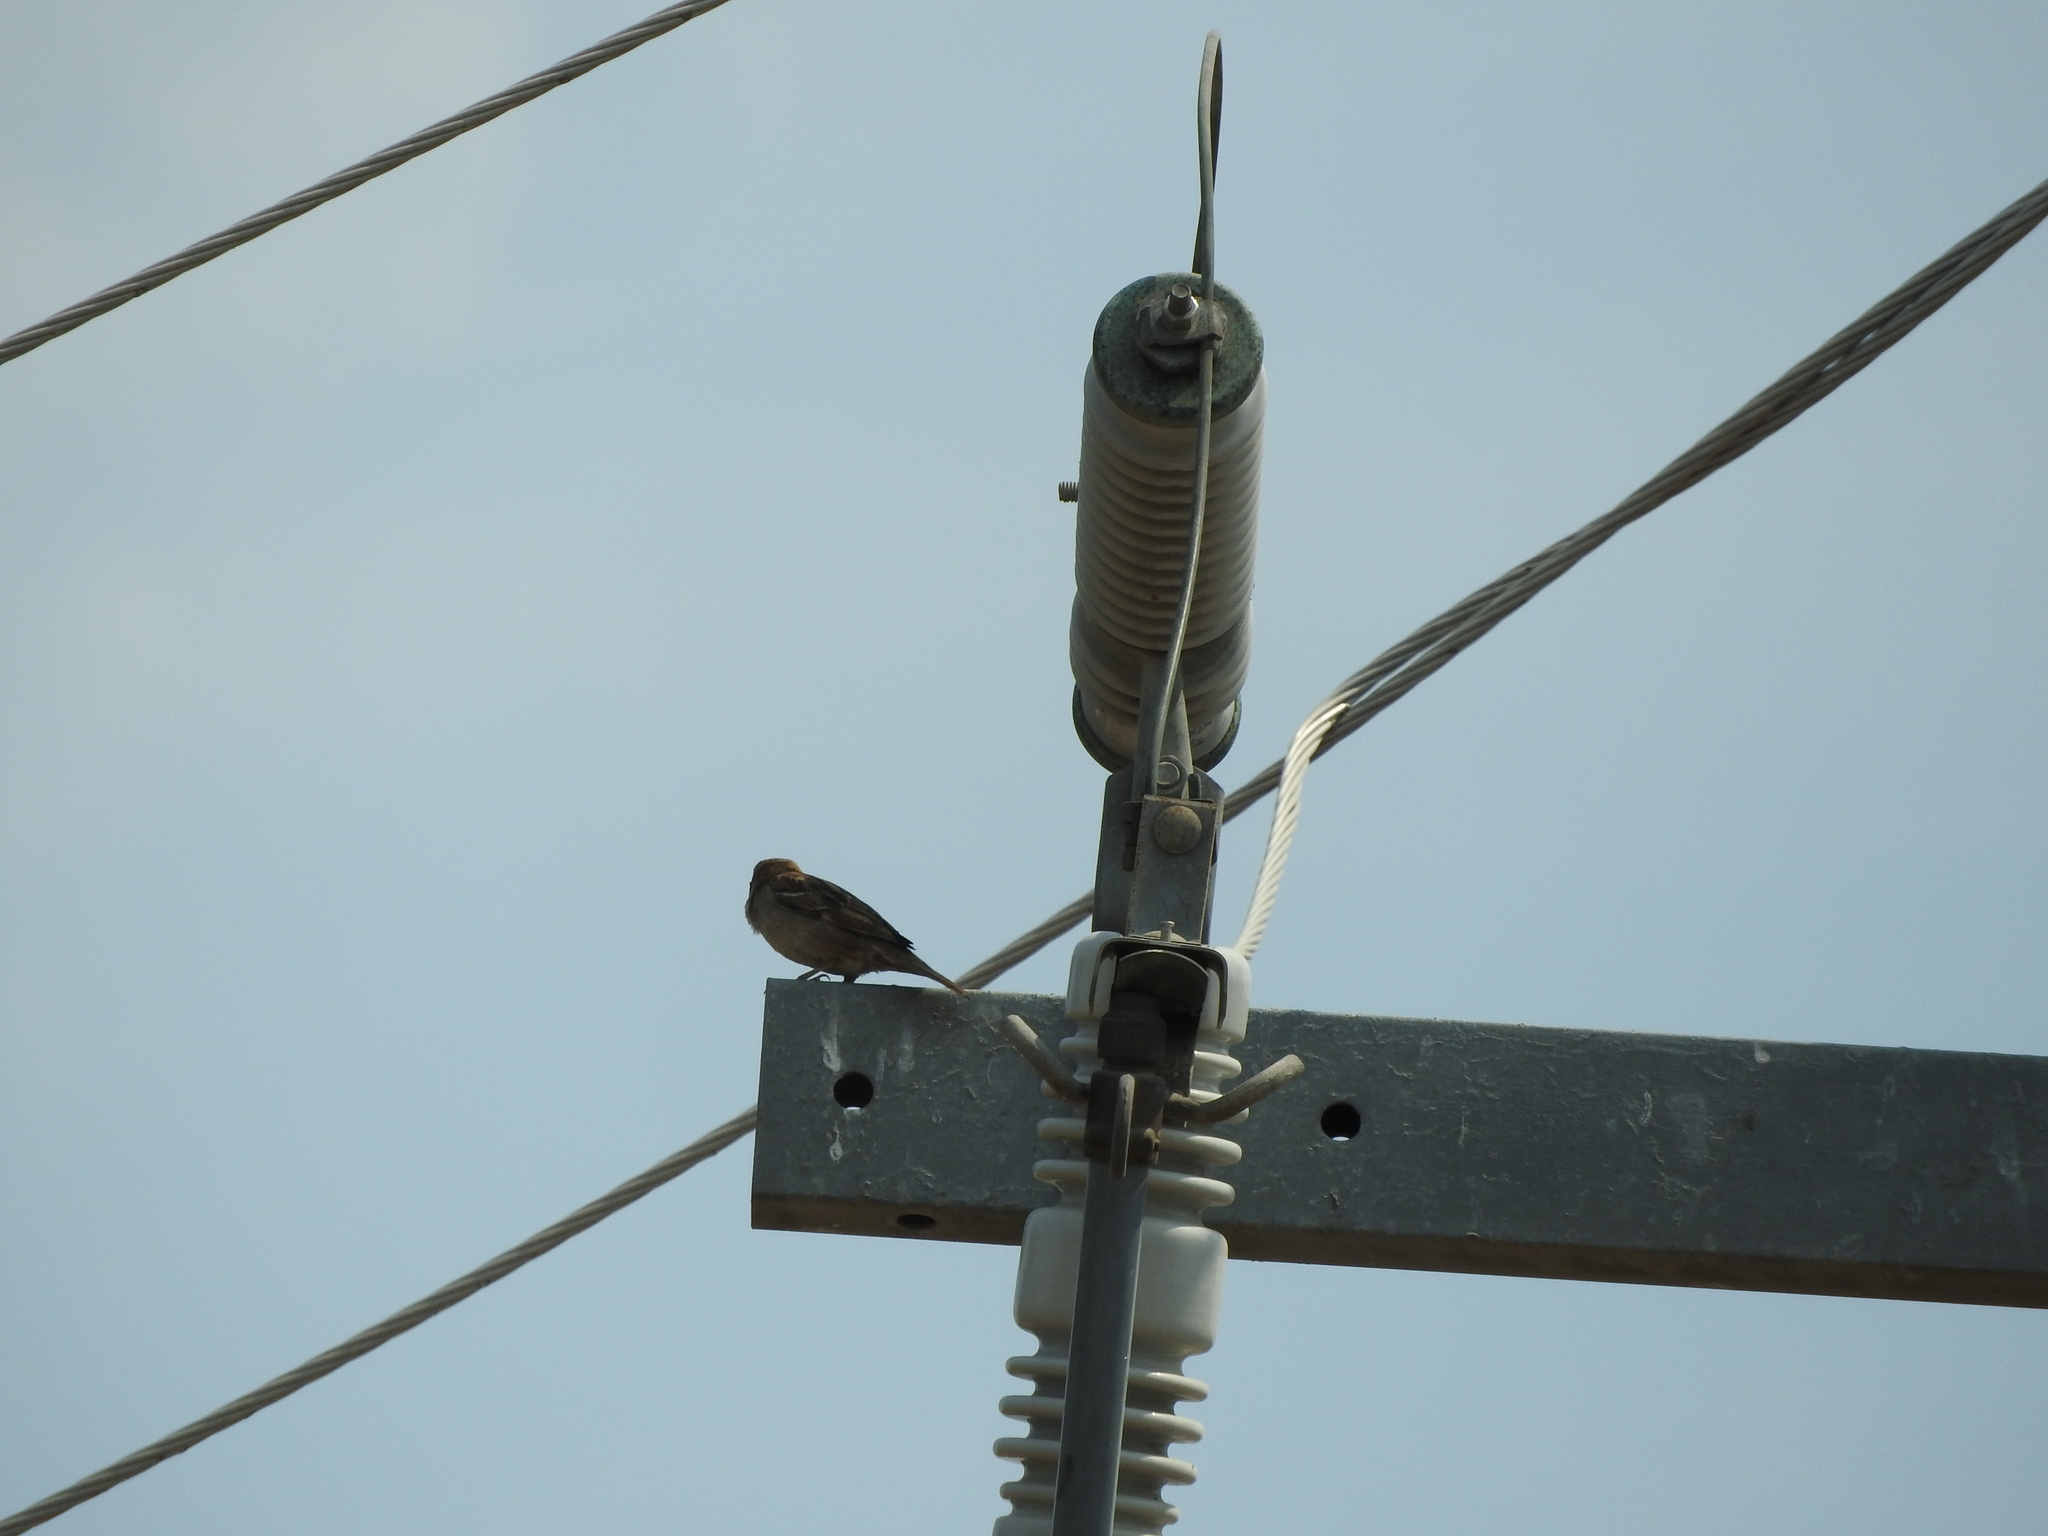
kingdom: Animalia
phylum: Chordata
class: Aves
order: Passeriformes
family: Passeridae
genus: Passer
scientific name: Passer domesticus
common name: House sparrow
